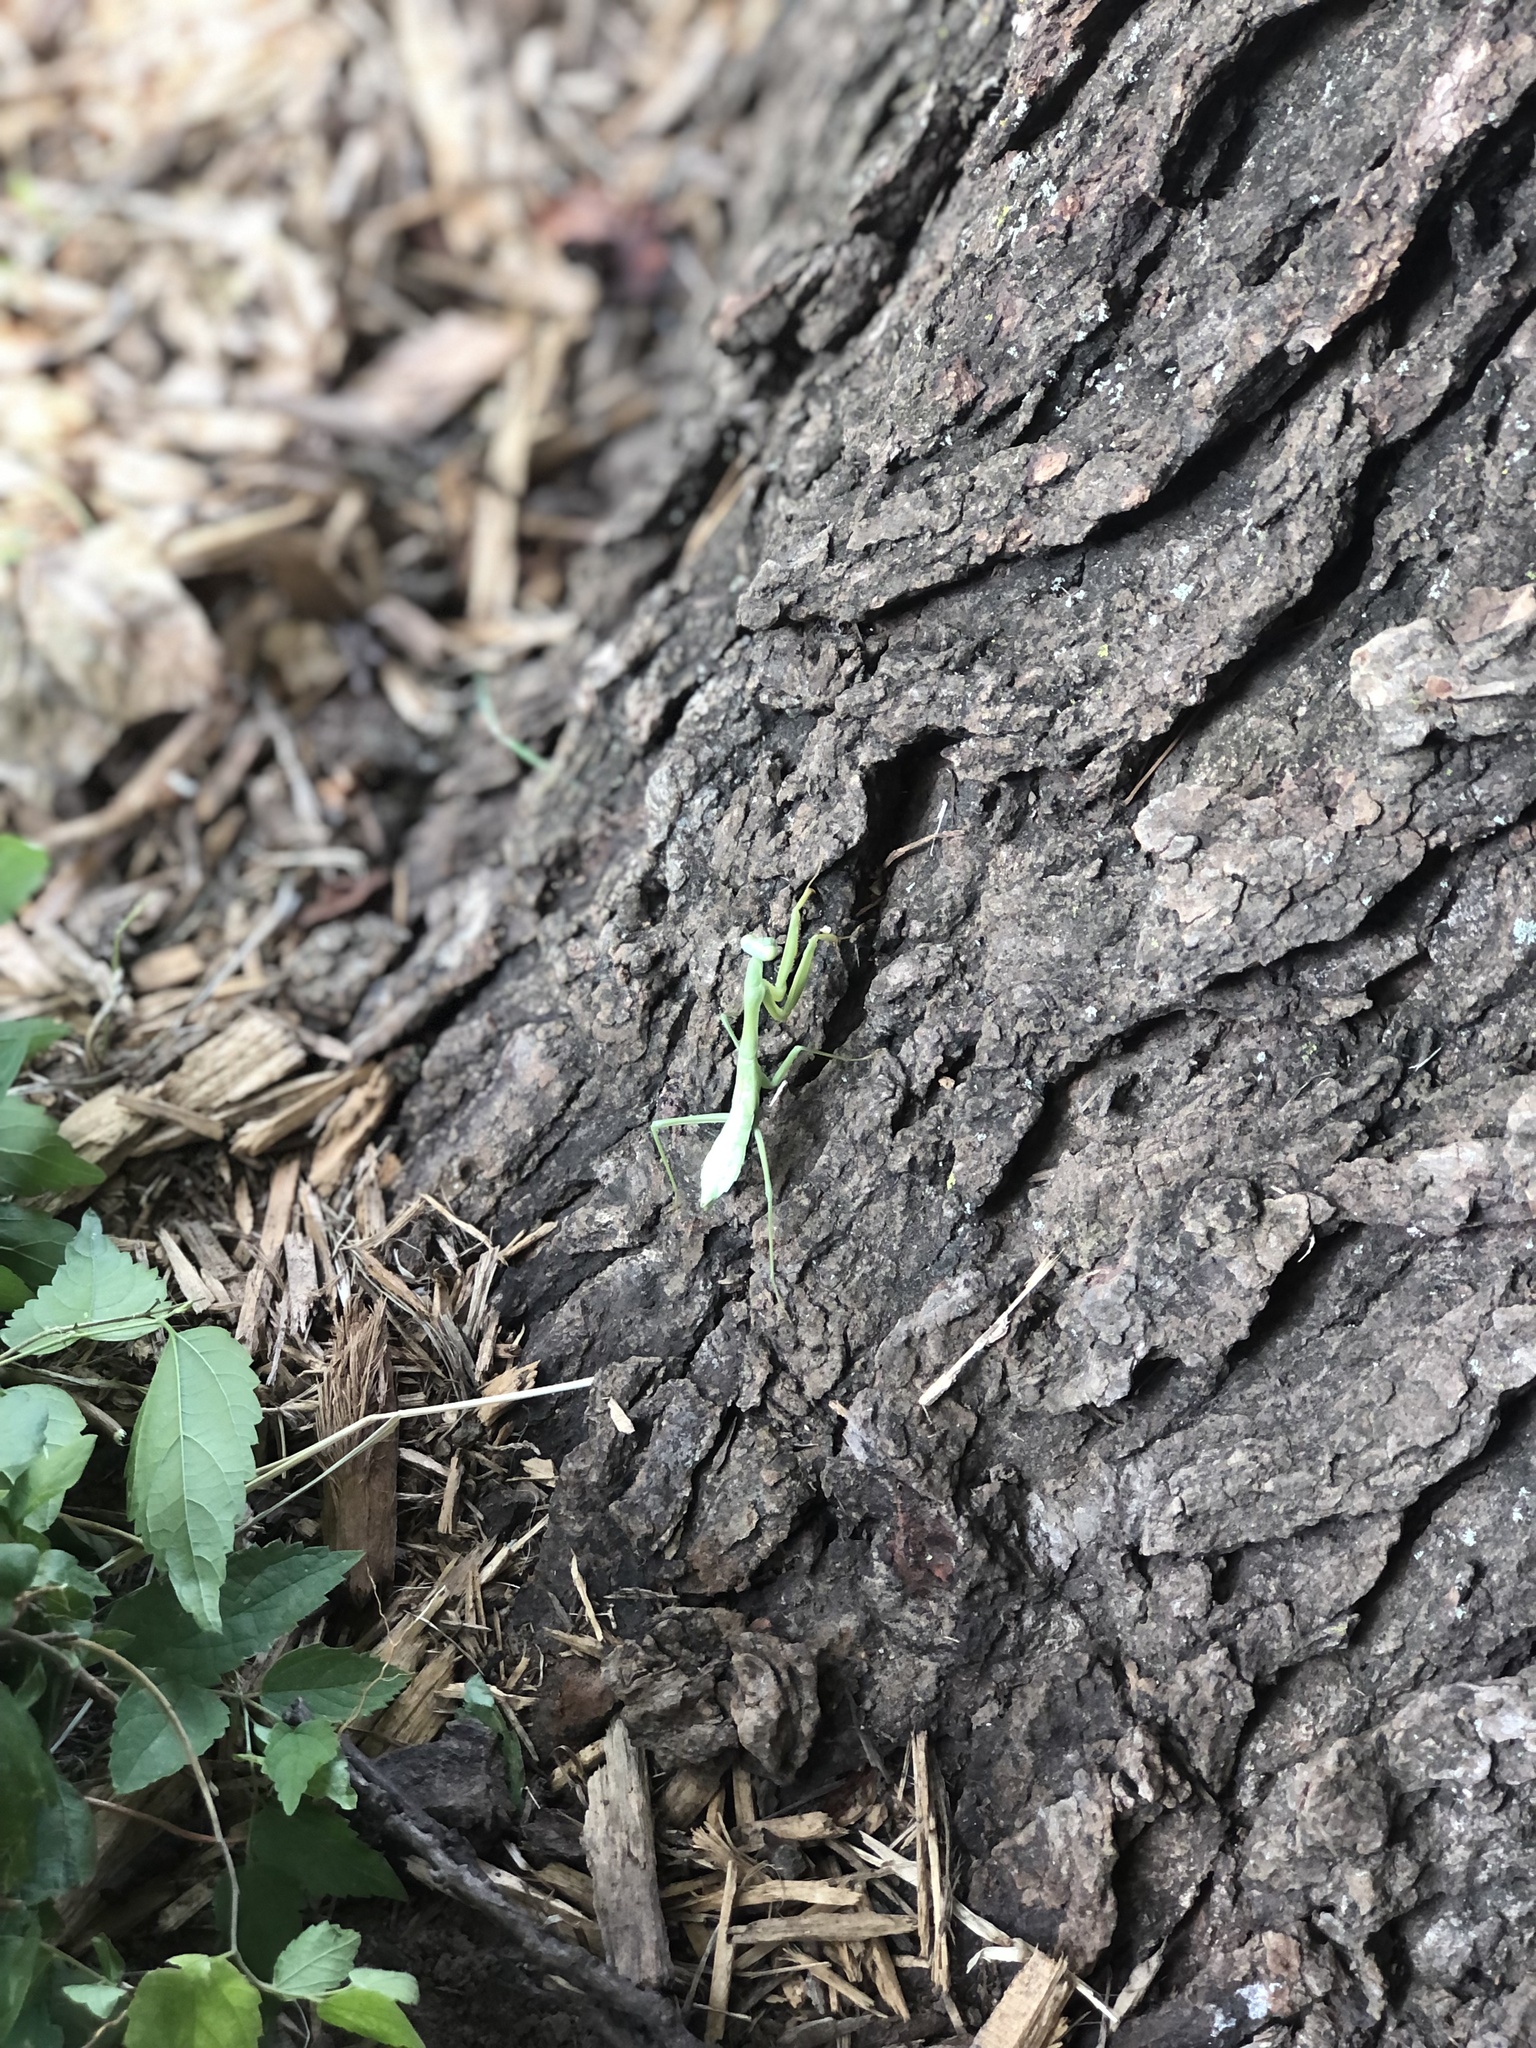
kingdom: Animalia
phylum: Arthropoda
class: Insecta
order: Mantodea
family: Mantidae
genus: Stagmomantis
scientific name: Stagmomantis carolina
